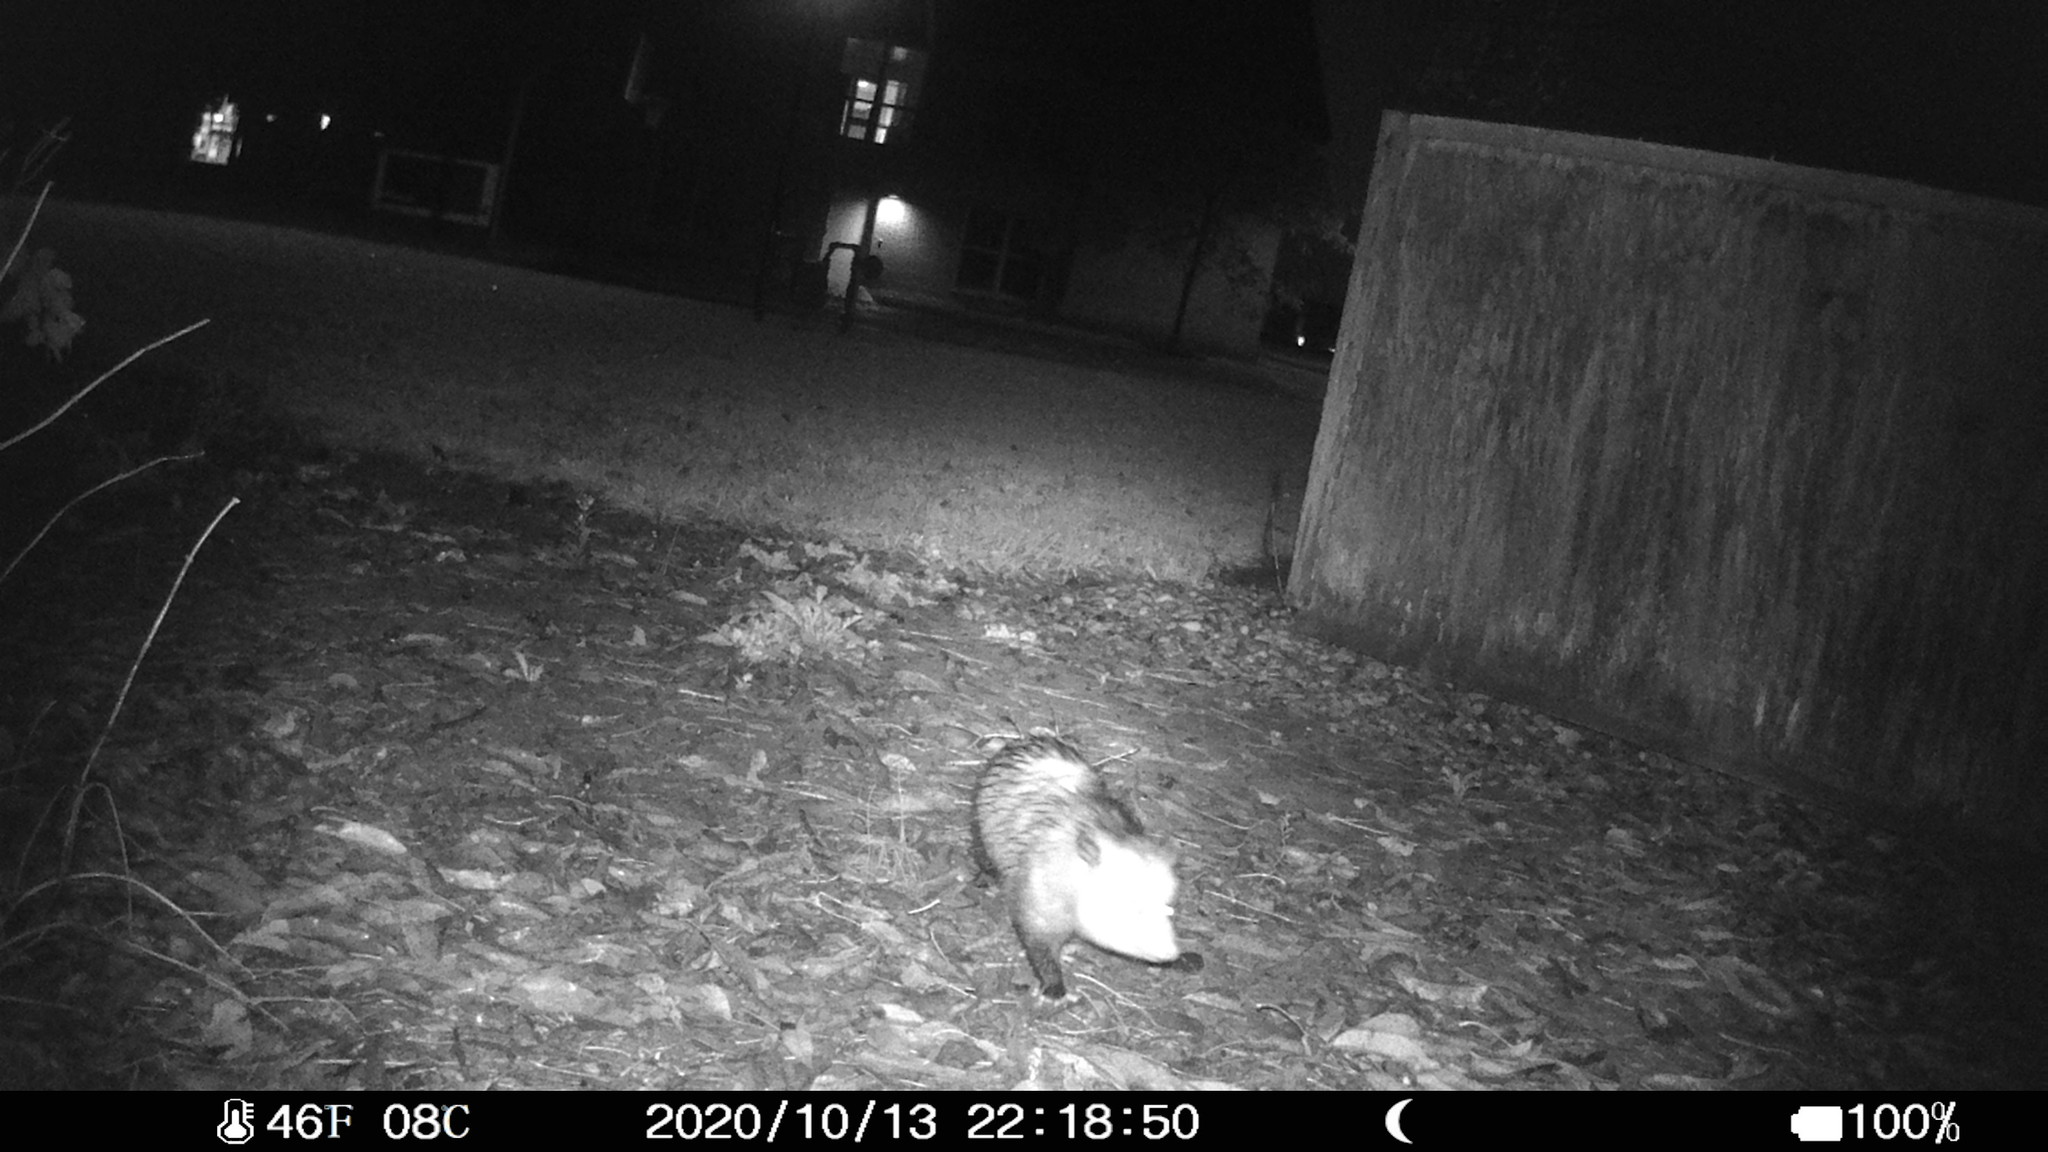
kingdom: Animalia
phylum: Chordata
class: Mammalia
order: Didelphimorphia
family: Didelphidae
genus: Didelphis
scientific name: Didelphis virginiana
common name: Virginia opossum
